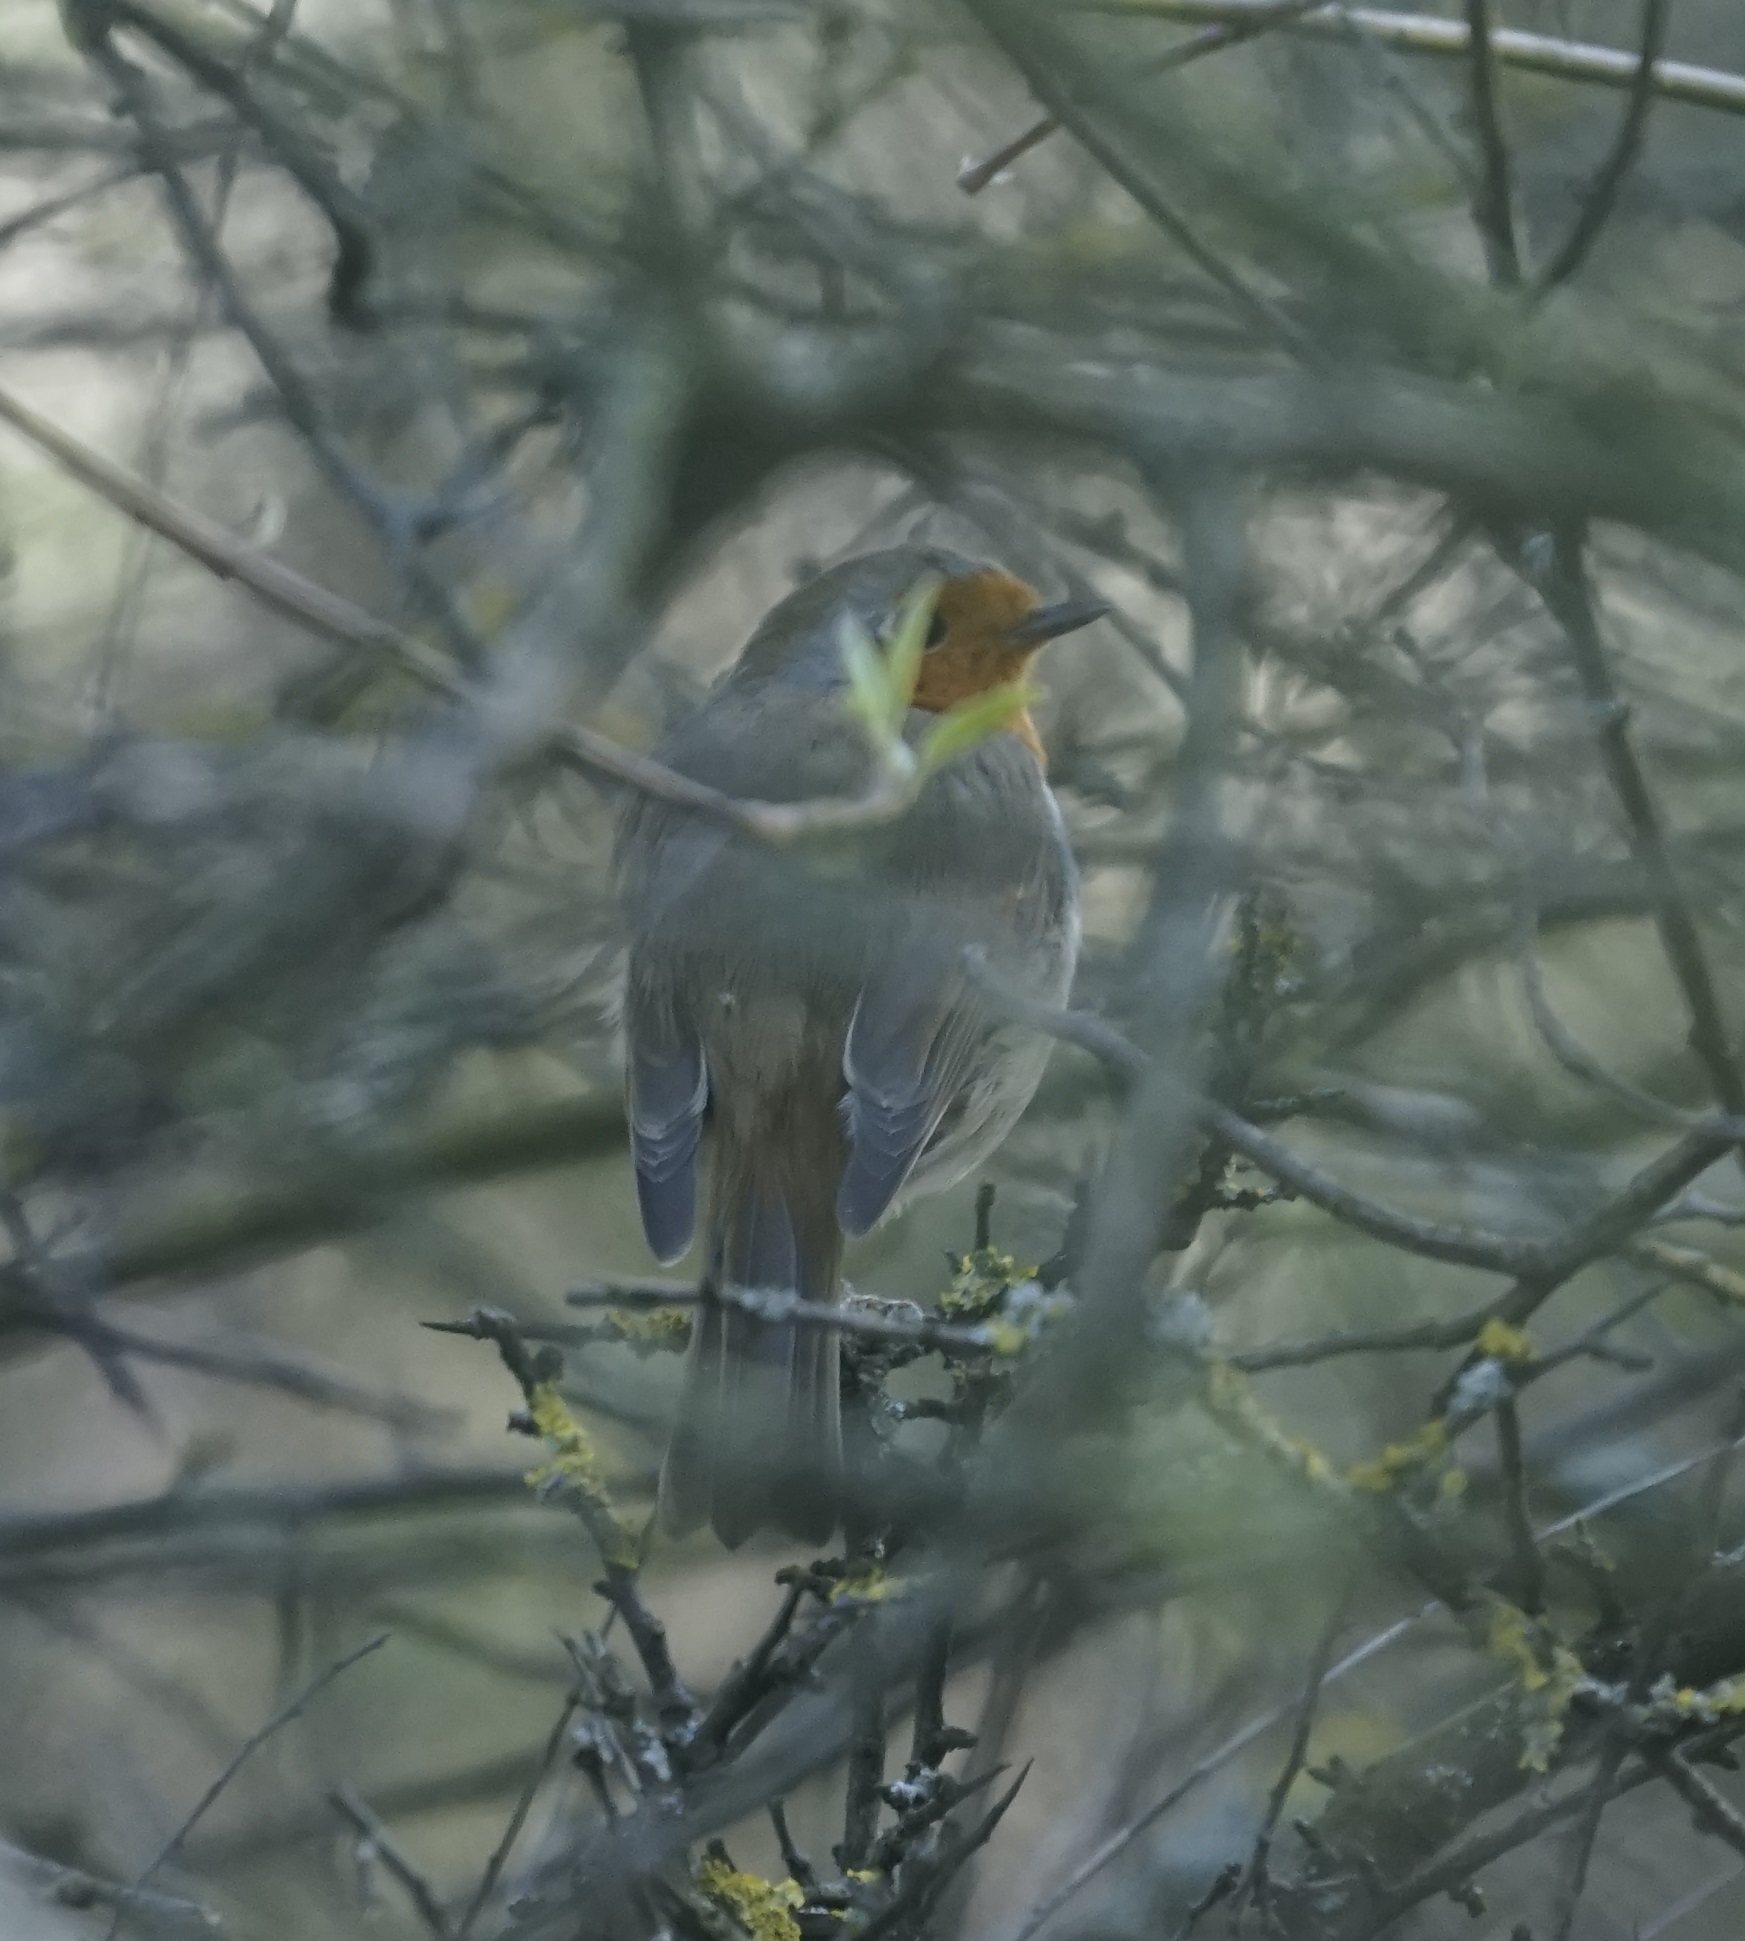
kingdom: Animalia
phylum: Chordata
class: Aves
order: Passeriformes
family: Muscicapidae
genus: Erithacus
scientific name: Erithacus rubecula
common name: European robin
